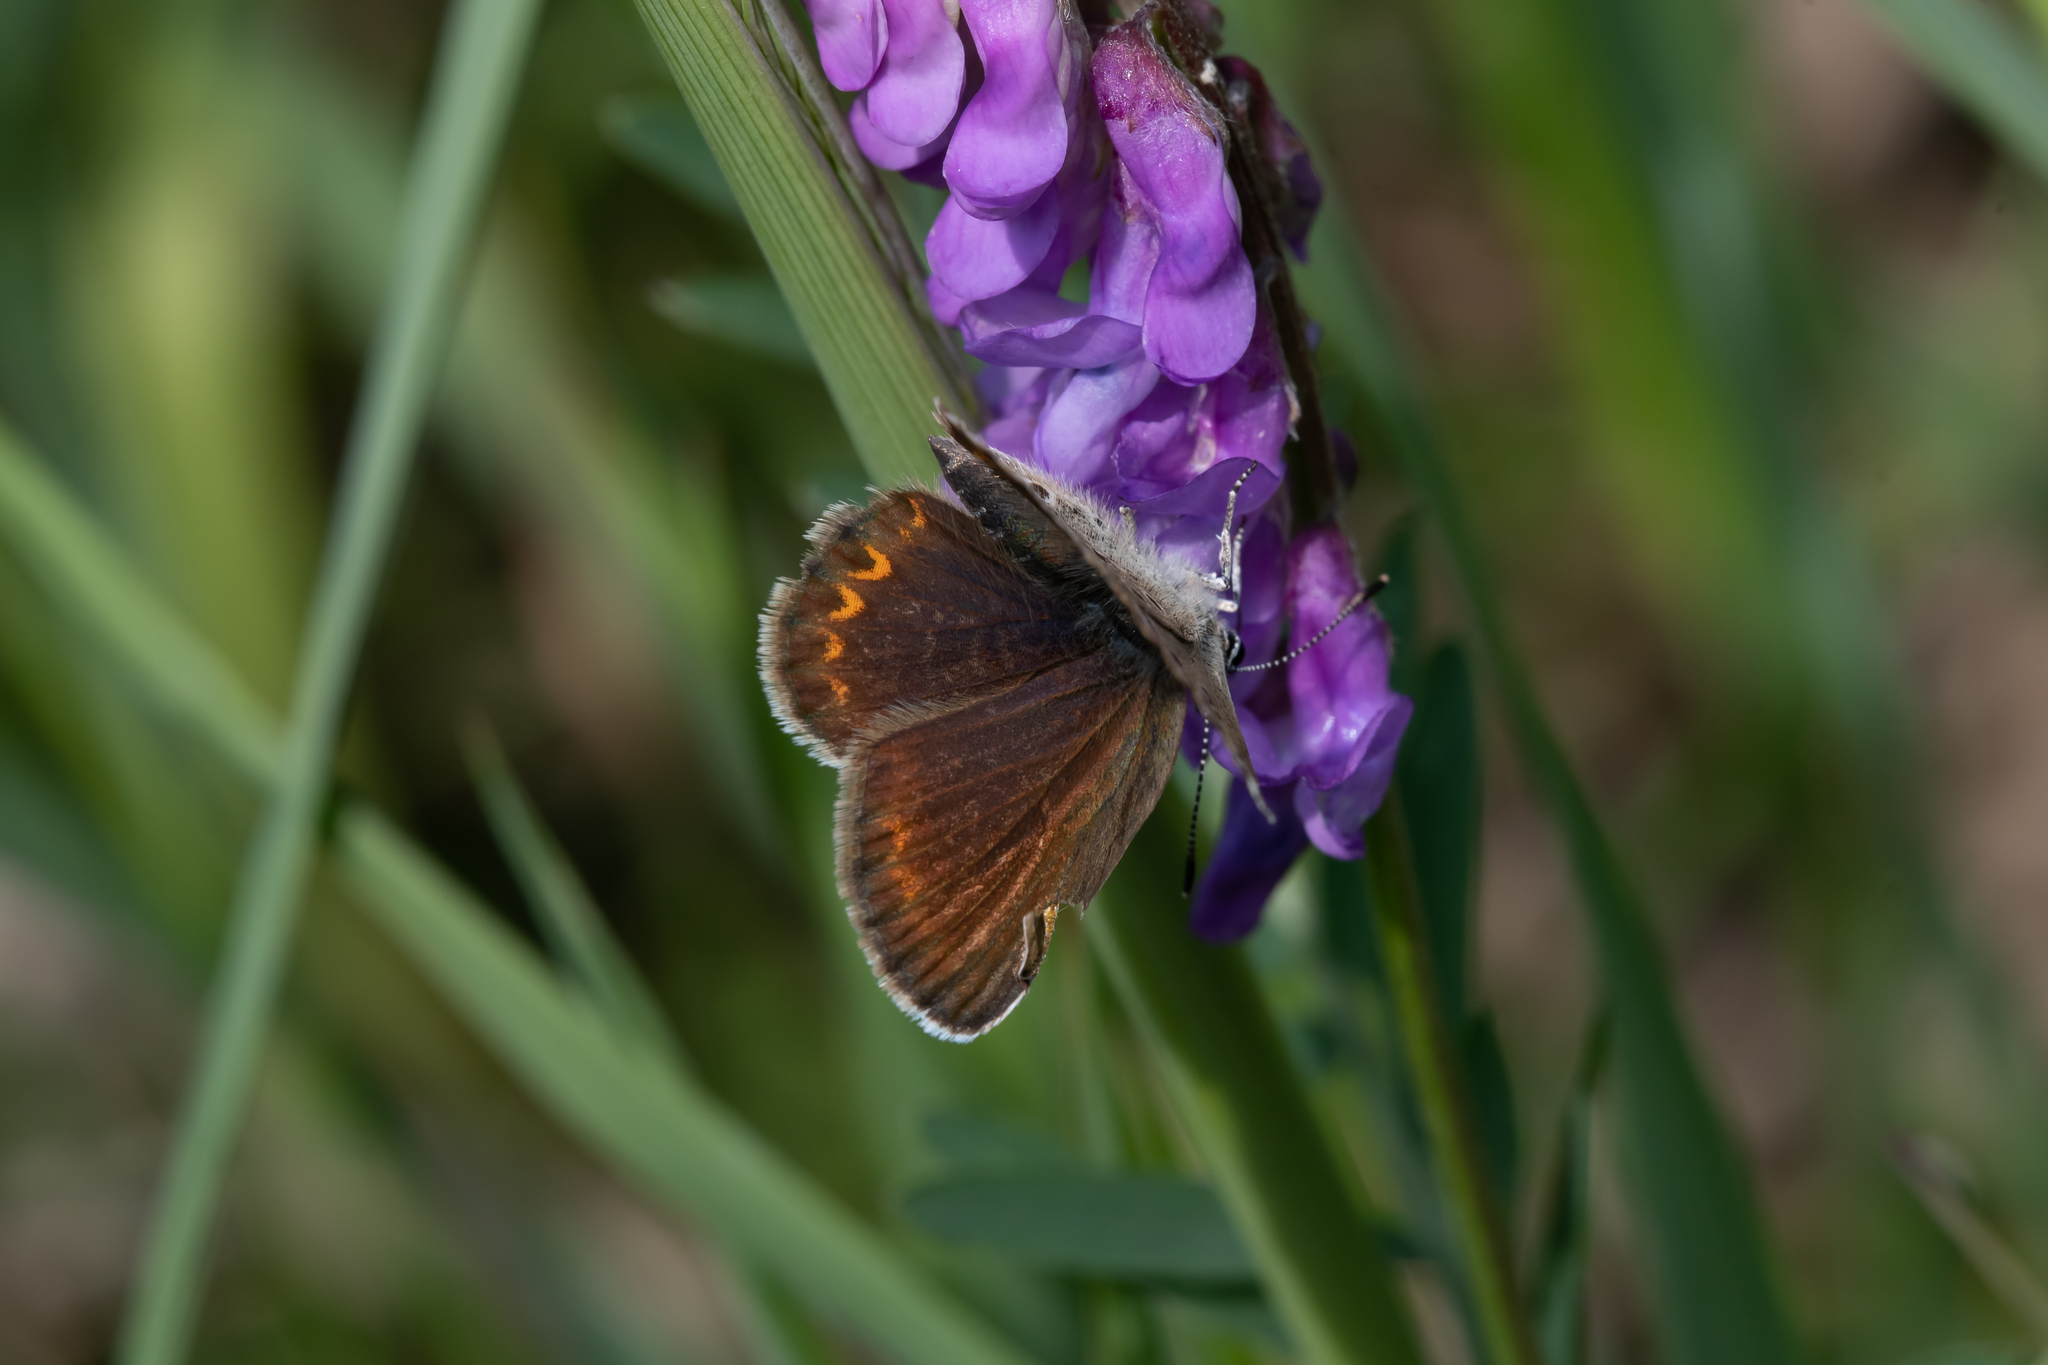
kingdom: Animalia
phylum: Arthropoda
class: Insecta
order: Lepidoptera
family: Lycaenidae
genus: Plebejus
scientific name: Plebejus argus
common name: Silver-studded blue
